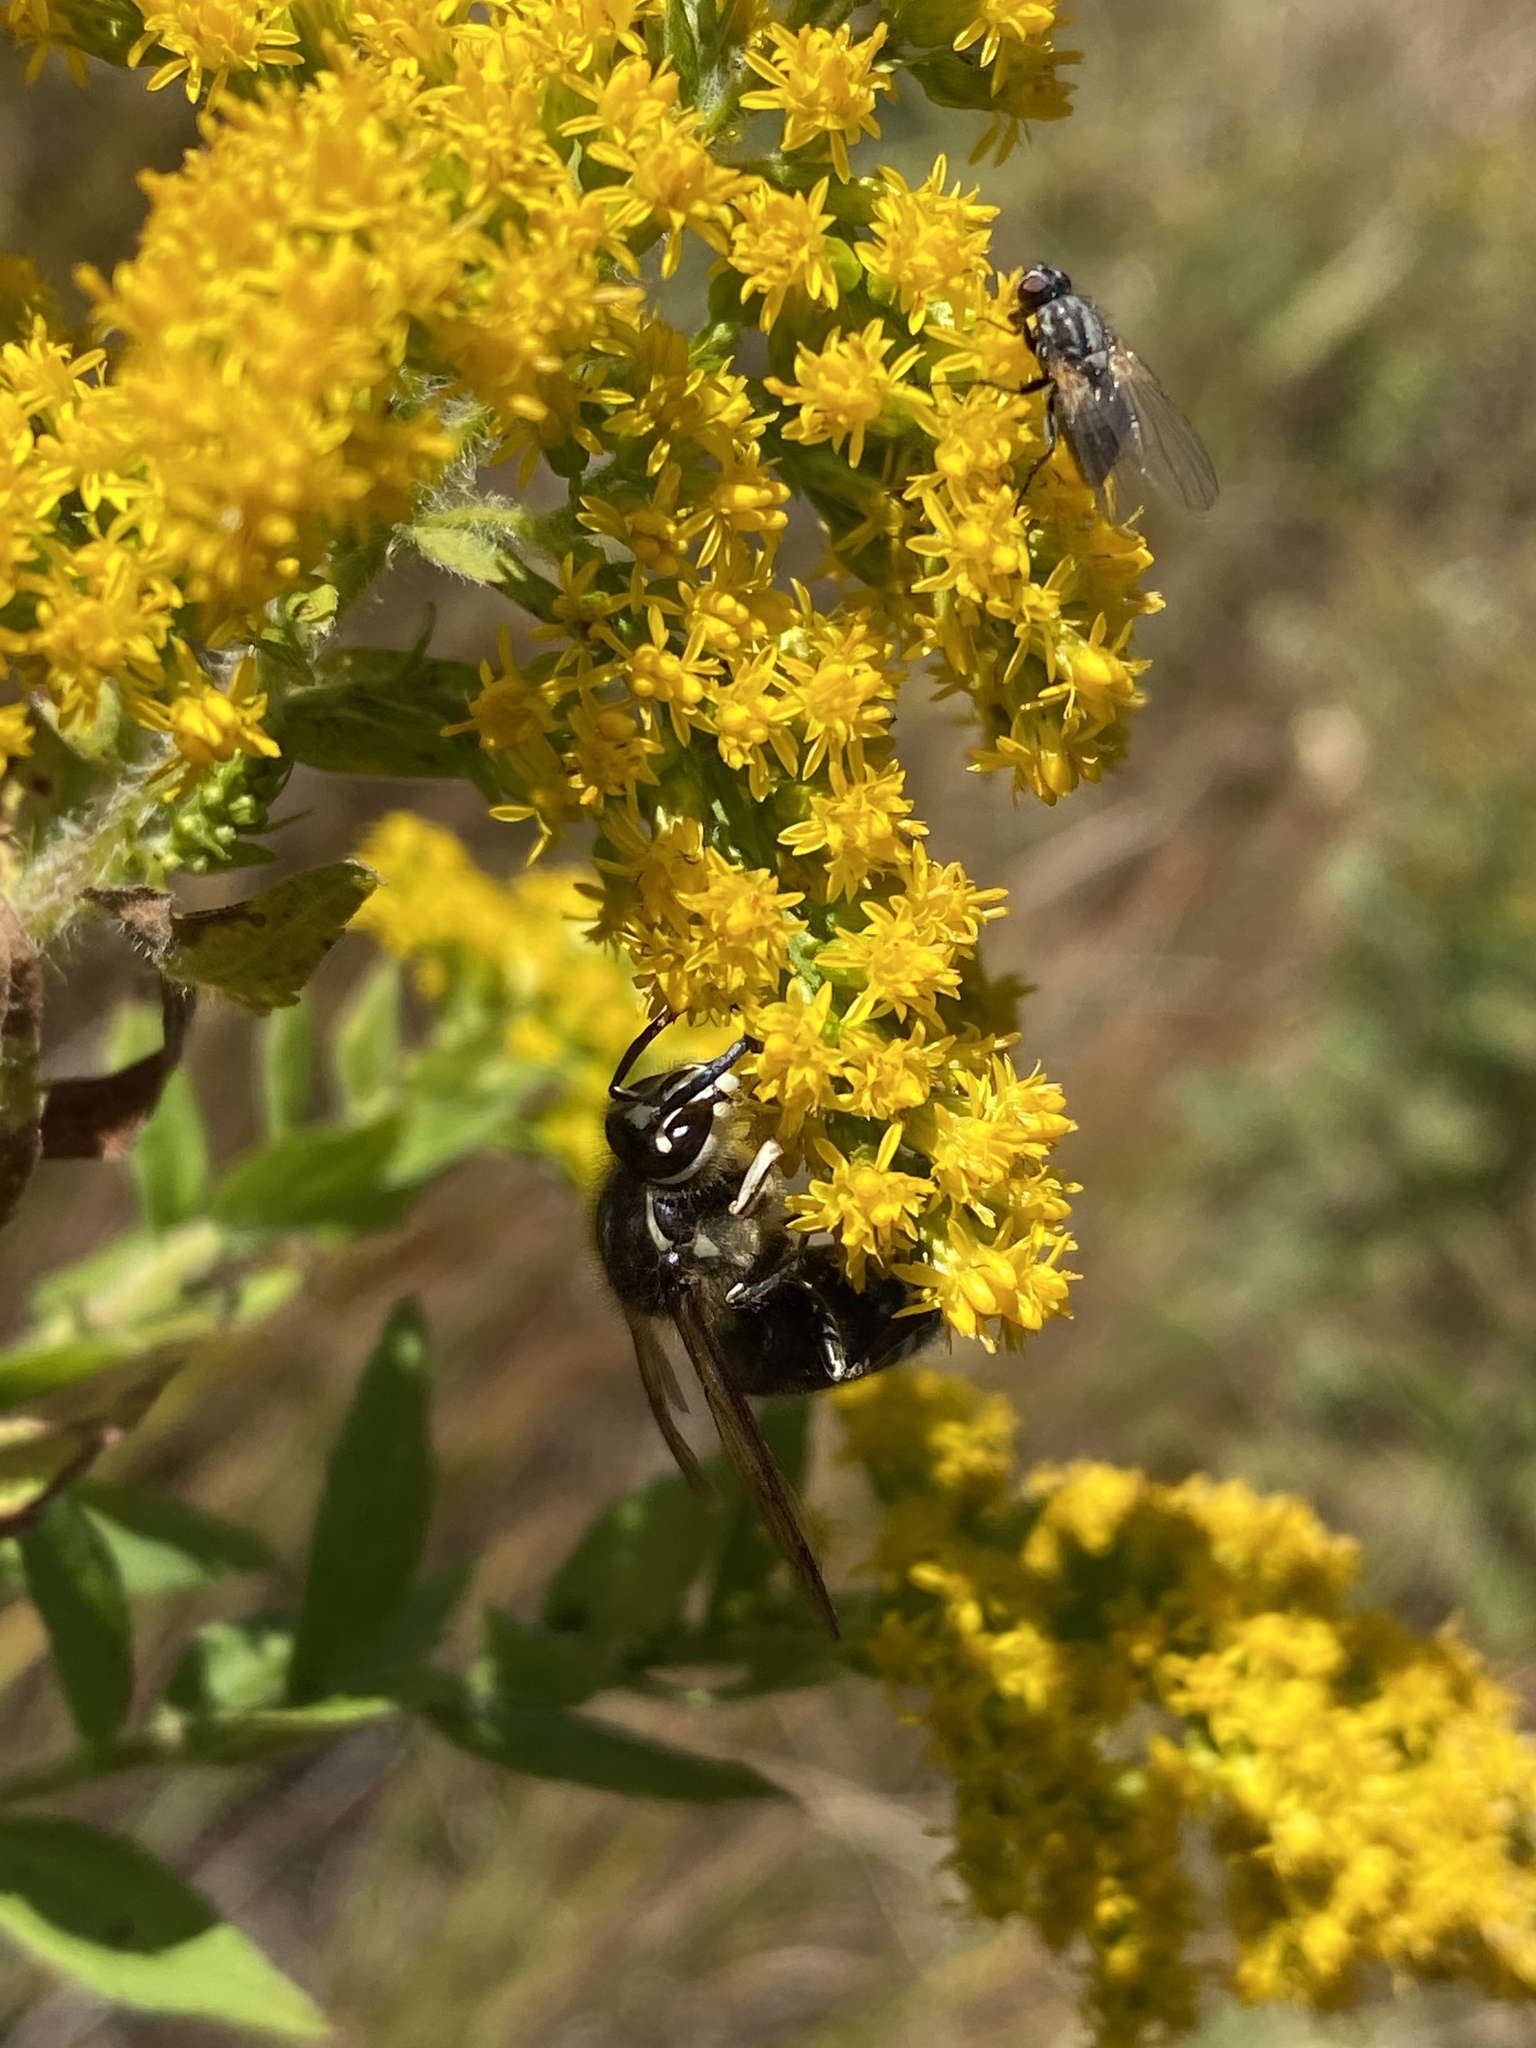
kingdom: Animalia
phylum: Arthropoda
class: Insecta
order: Hymenoptera
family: Vespidae
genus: Dolichovespula
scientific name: Dolichovespula maculata
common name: Bald-faced hornet
